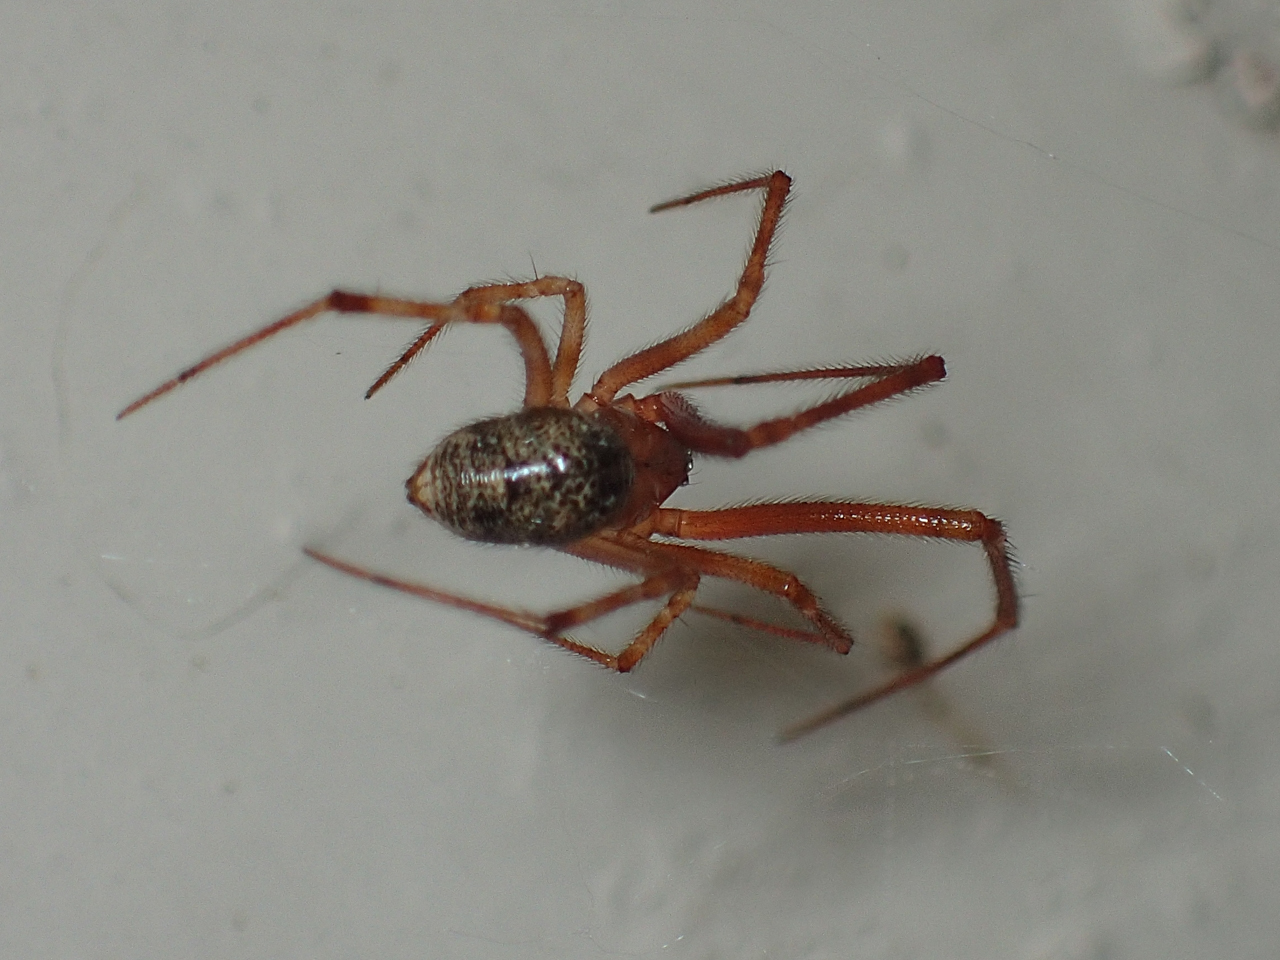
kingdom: Animalia
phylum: Arthropoda
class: Arachnida
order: Araneae
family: Theridiidae
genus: Parasteatoda
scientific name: Parasteatoda tepidariorum
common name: Common house spider
